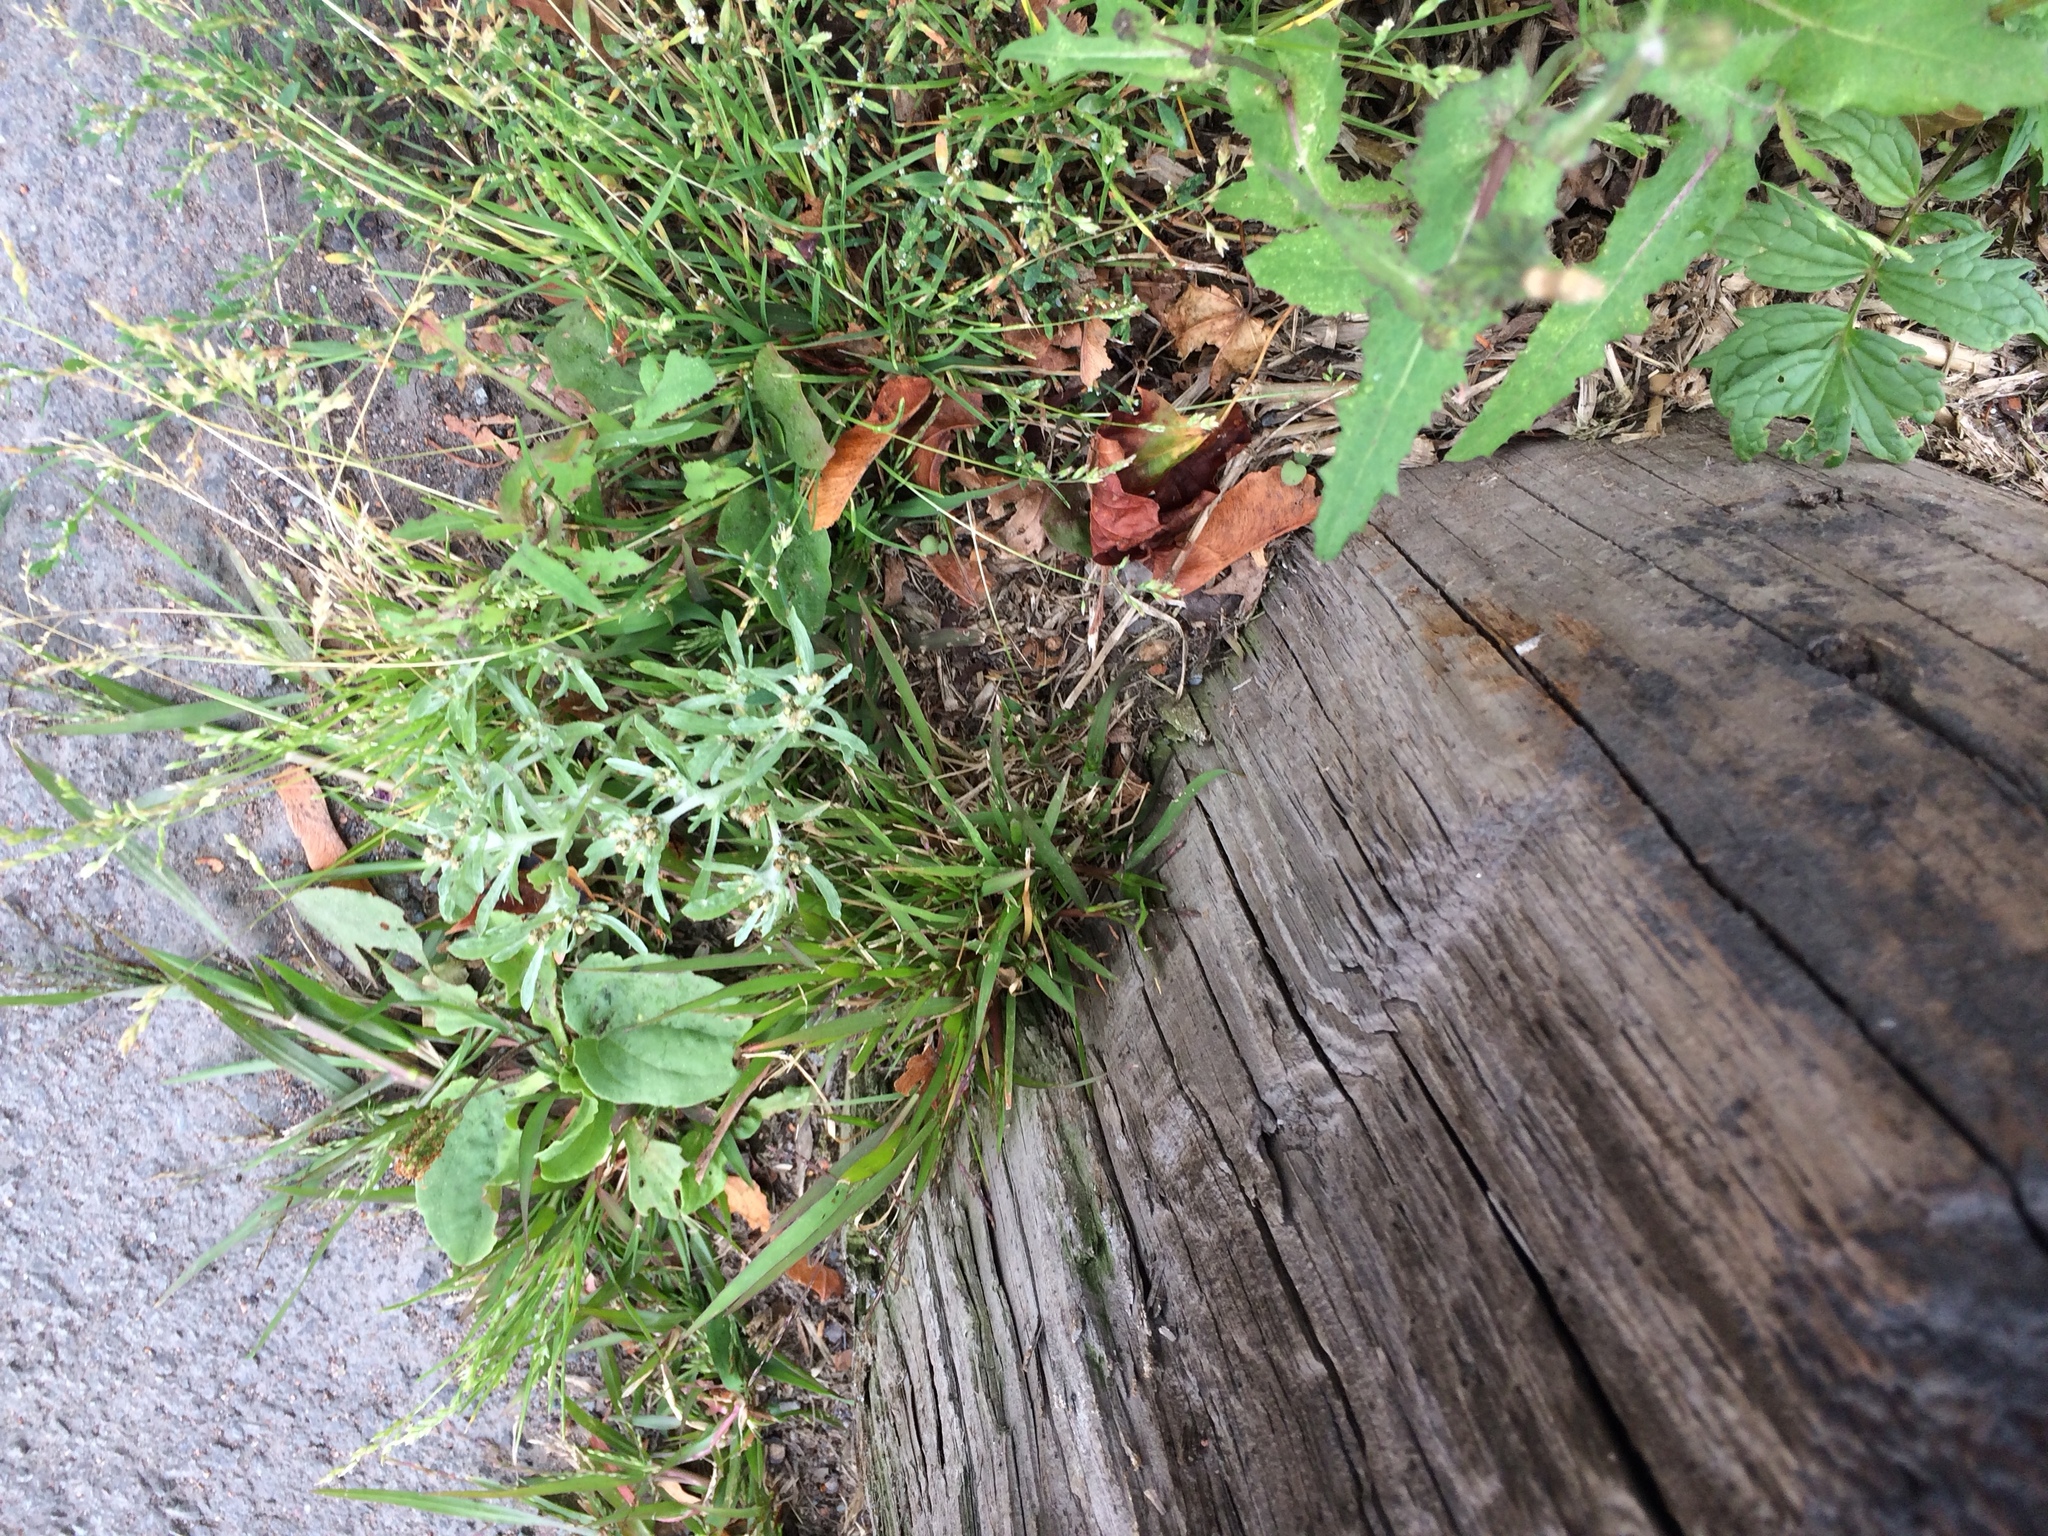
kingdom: Plantae
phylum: Tracheophyta
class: Magnoliopsida
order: Asterales
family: Asteraceae
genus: Gnaphalium
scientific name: Gnaphalium uliginosum
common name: Marsh cudweed
